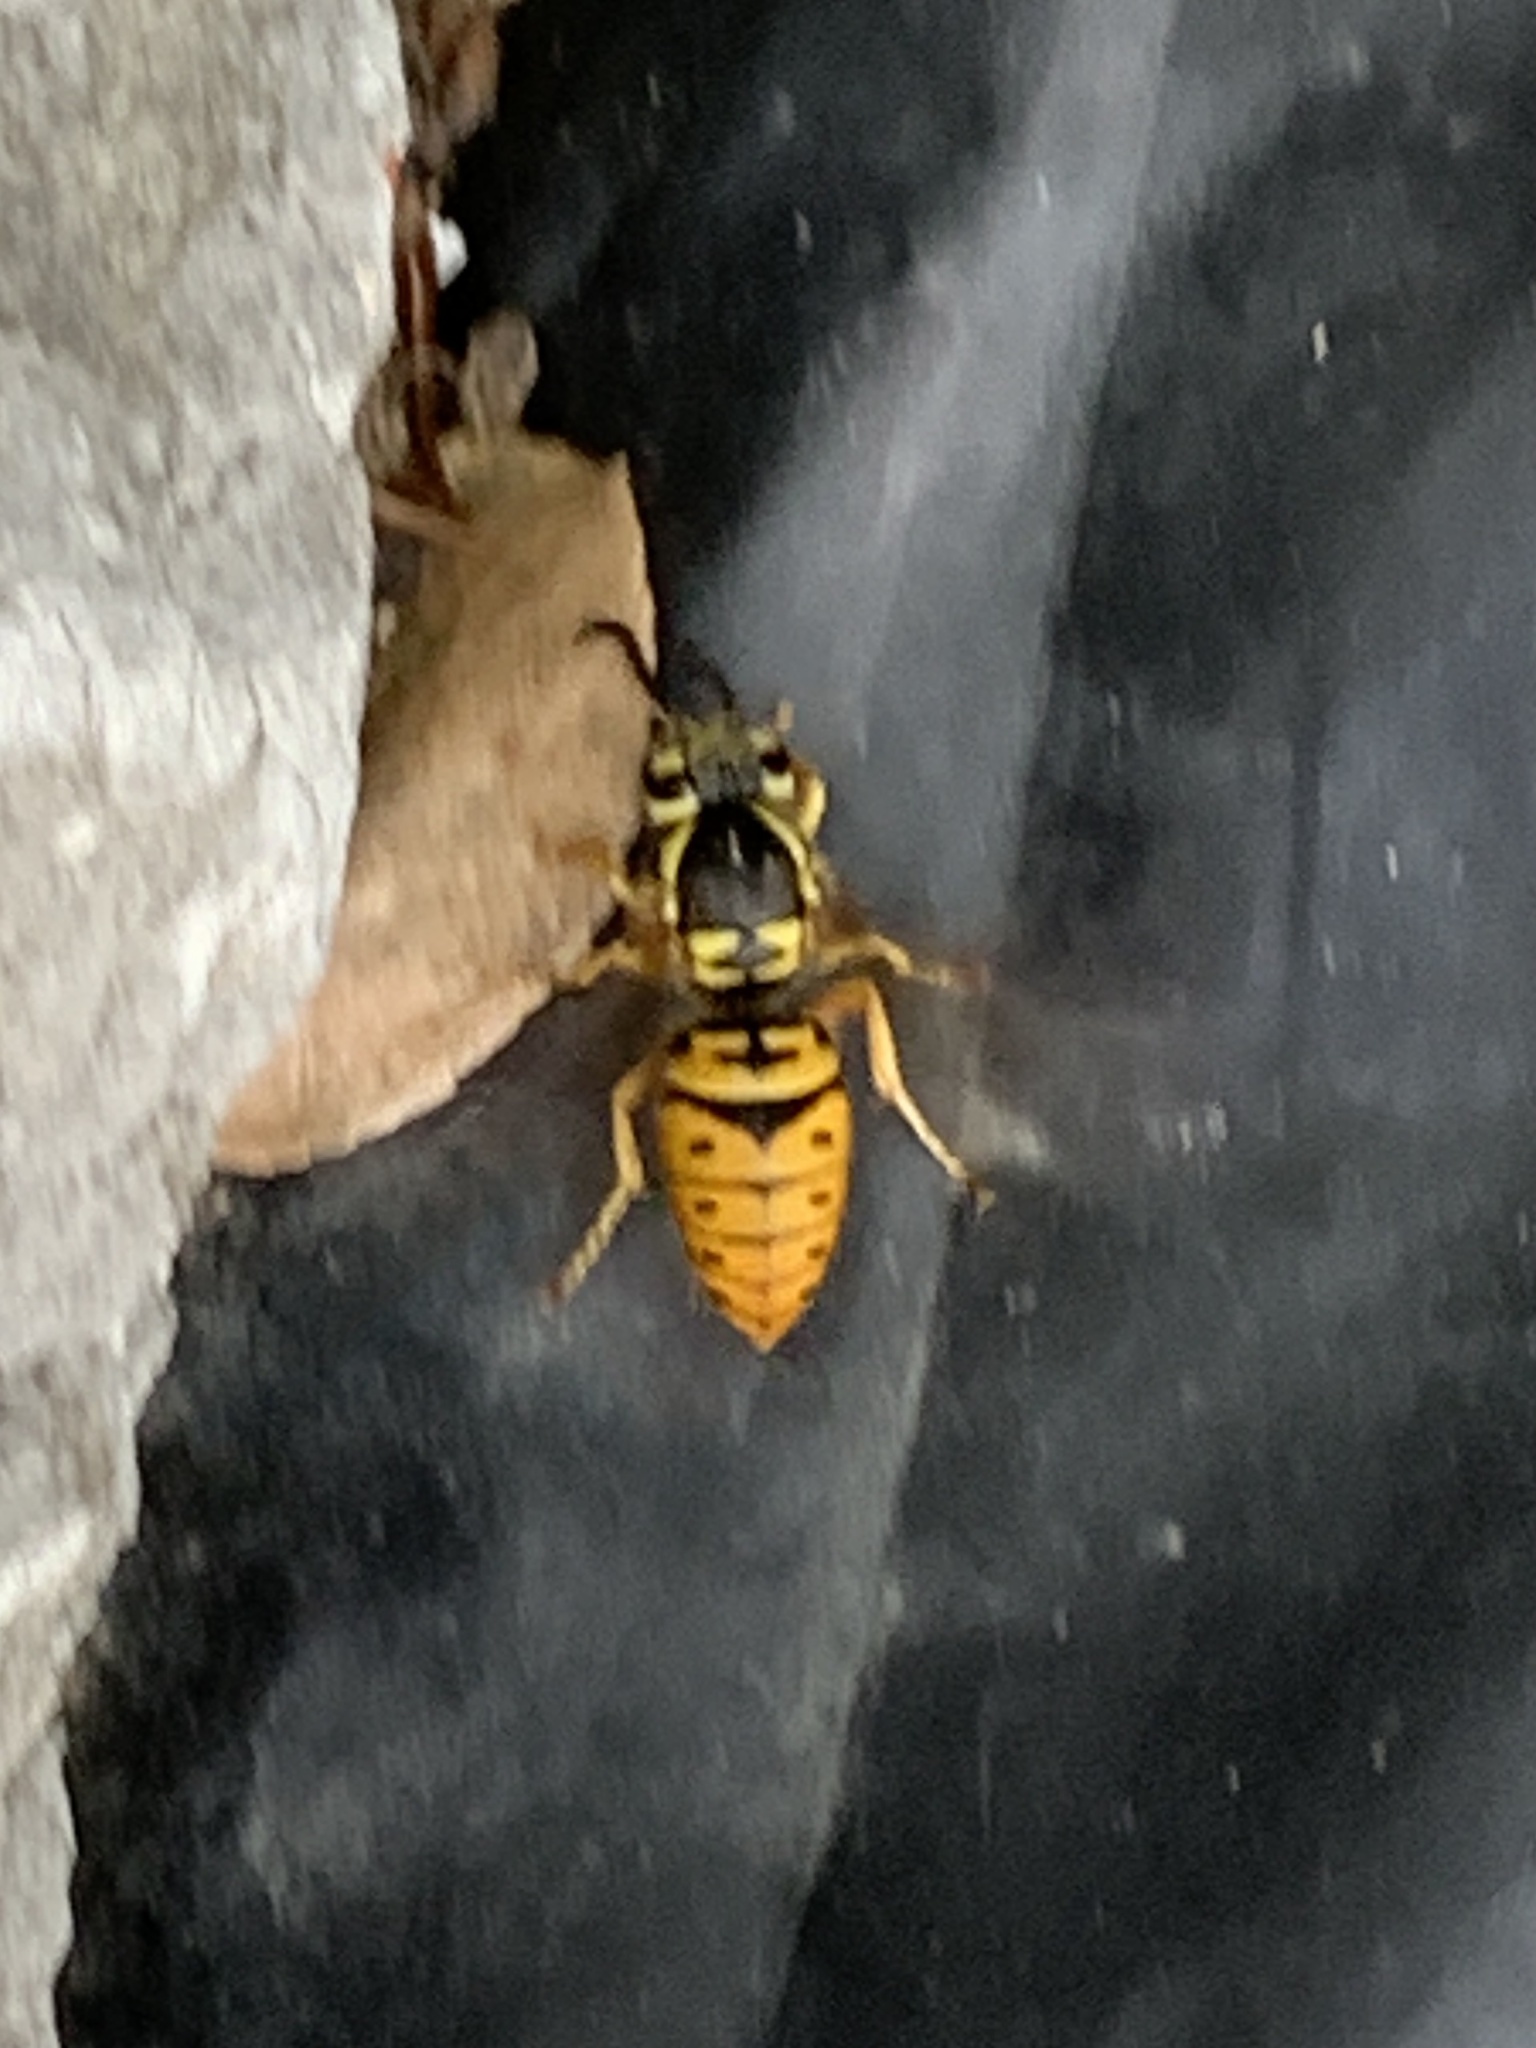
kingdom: Animalia
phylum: Arthropoda
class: Insecta
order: Hymenoptera
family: Vespidae
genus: Vespula
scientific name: Vespula maculifrons
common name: Eastern yellowjacket
